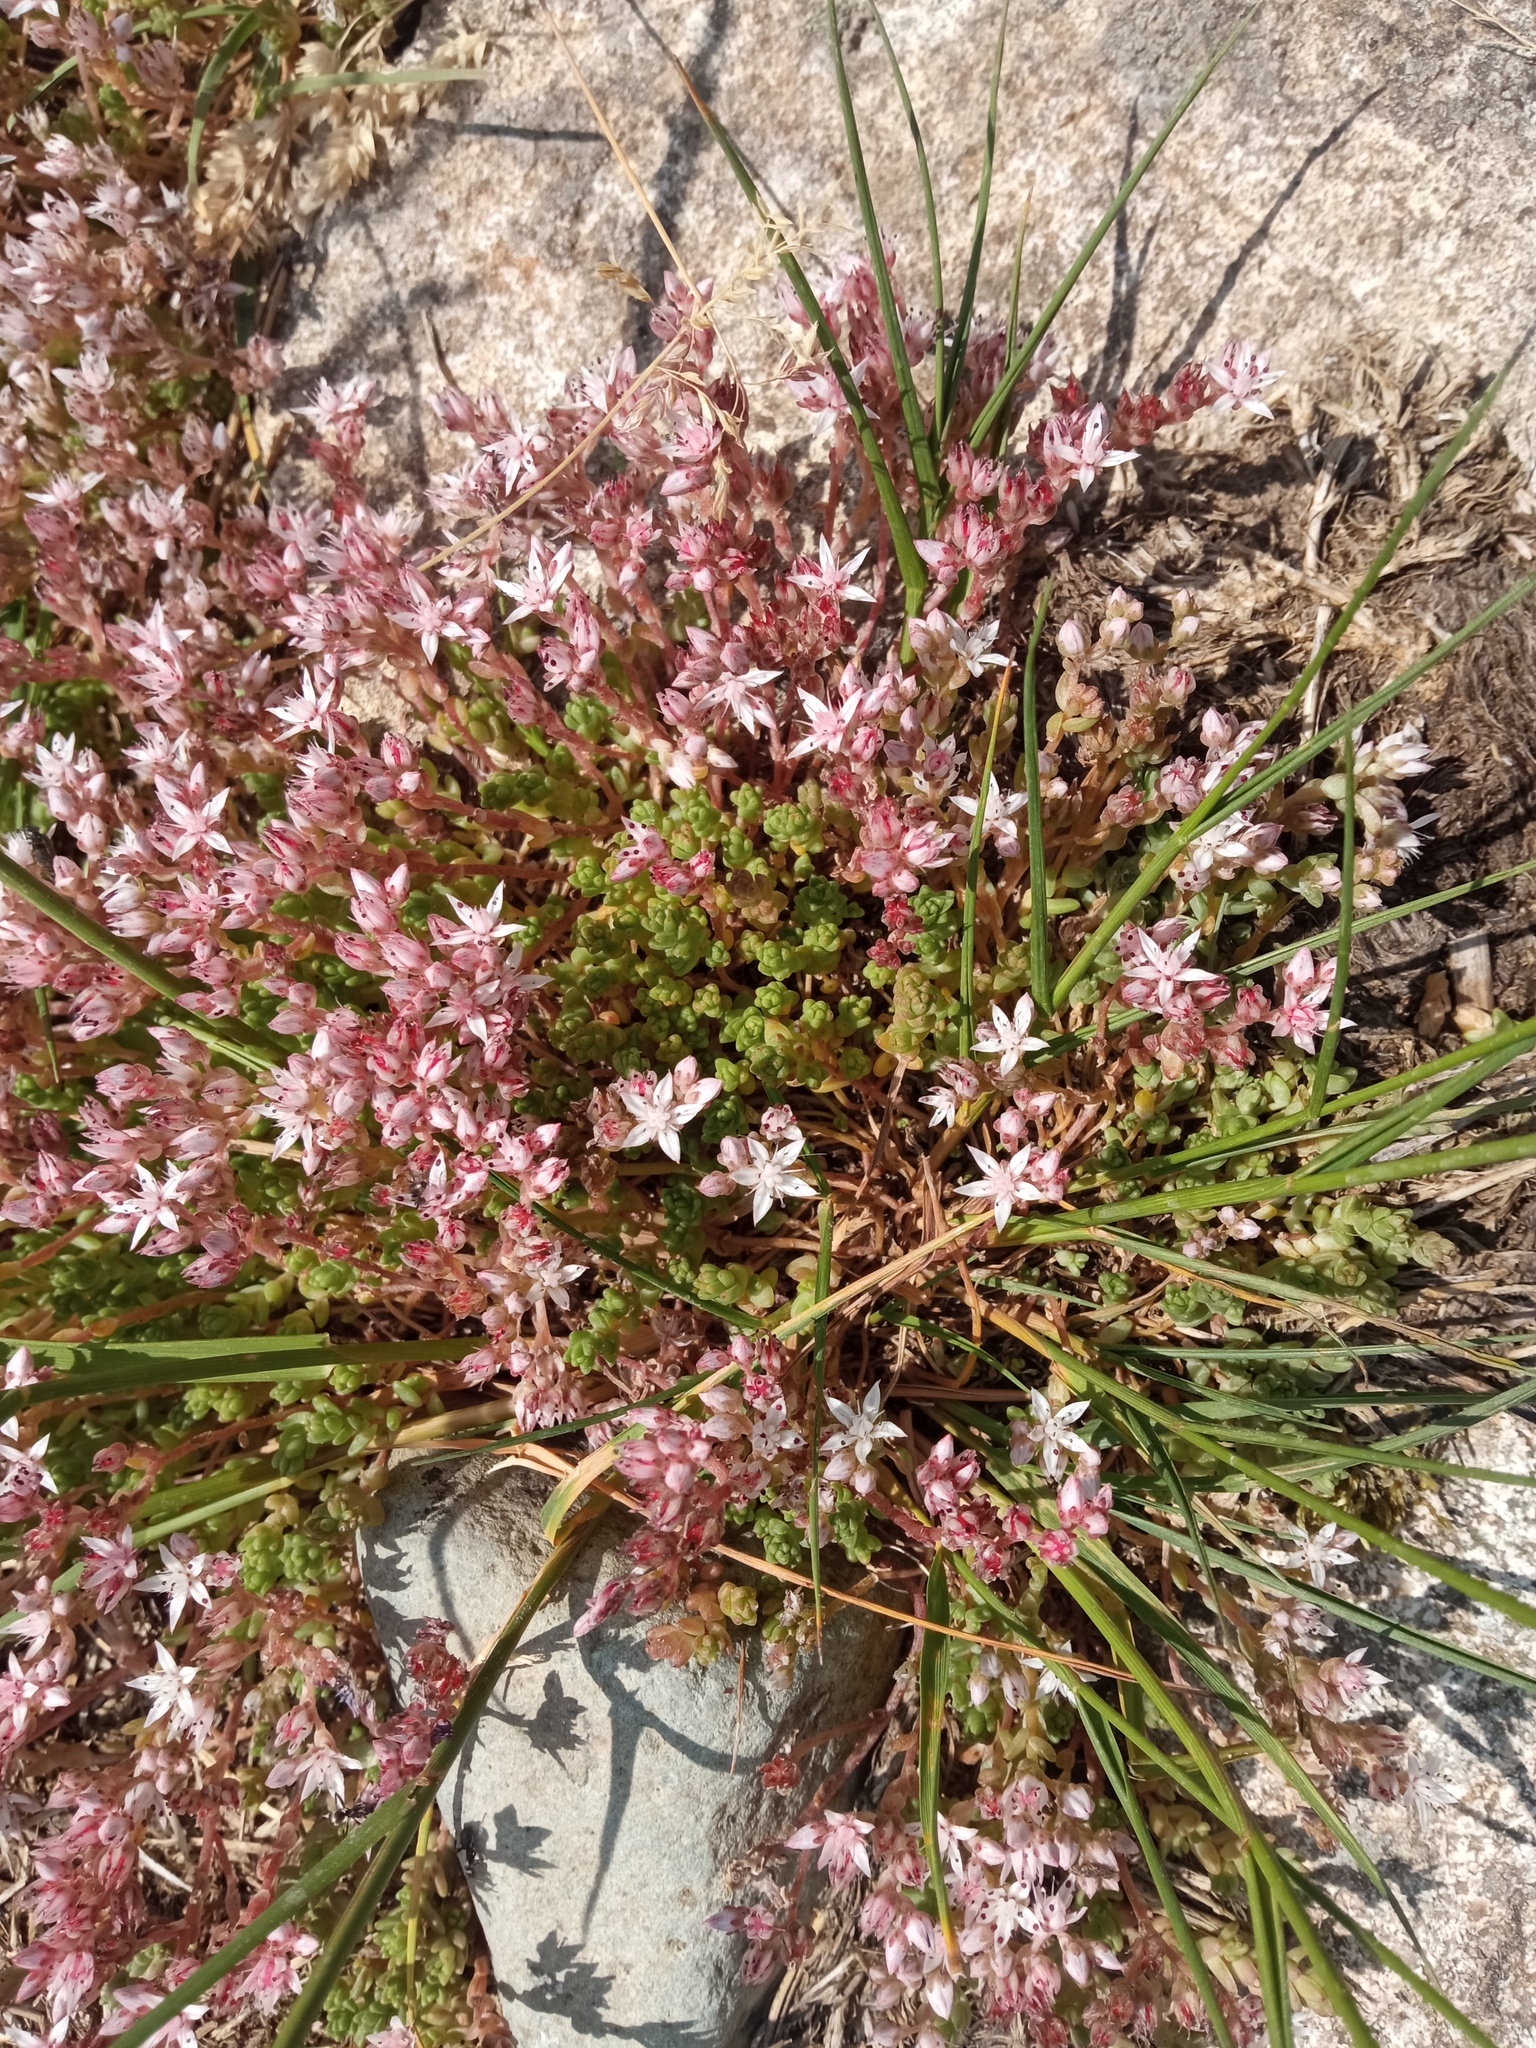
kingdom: Plantae
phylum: Tracheophyta
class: Magnoliopsida
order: Saxifragales
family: Crassulaceae
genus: Sedum
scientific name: Sedum anglicum
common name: English stonecrop
